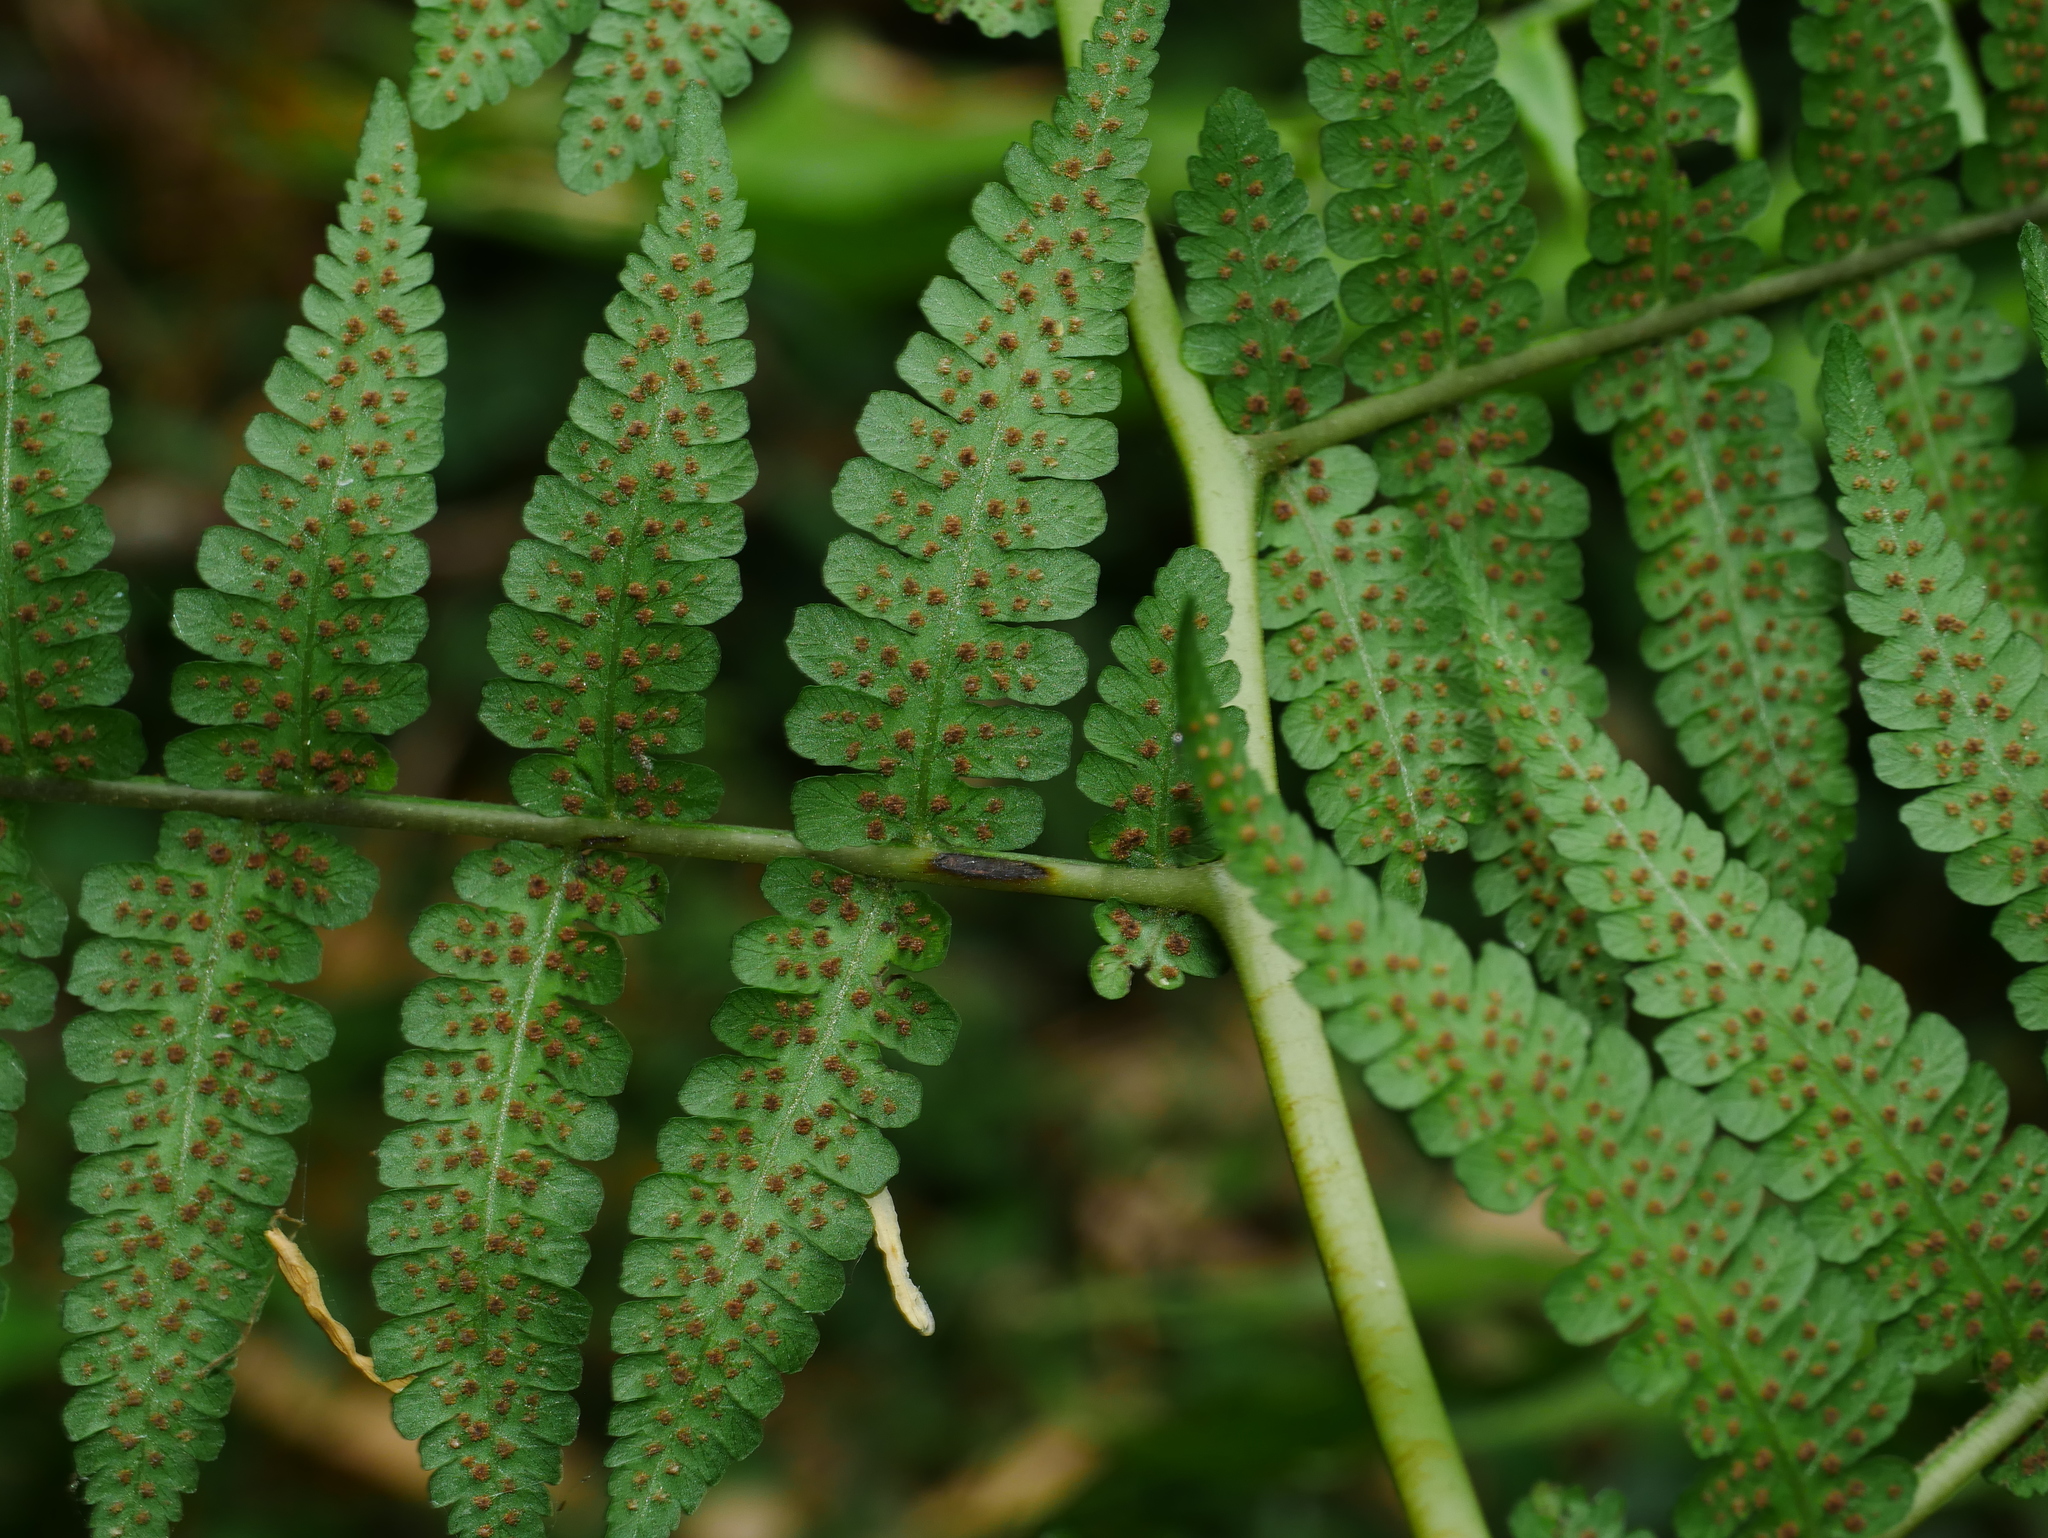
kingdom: Plantae
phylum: Tracheophyta
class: Polypodiopsida
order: Polypodiales
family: Athyriaceae
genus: Deparia
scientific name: Deparia boryana
